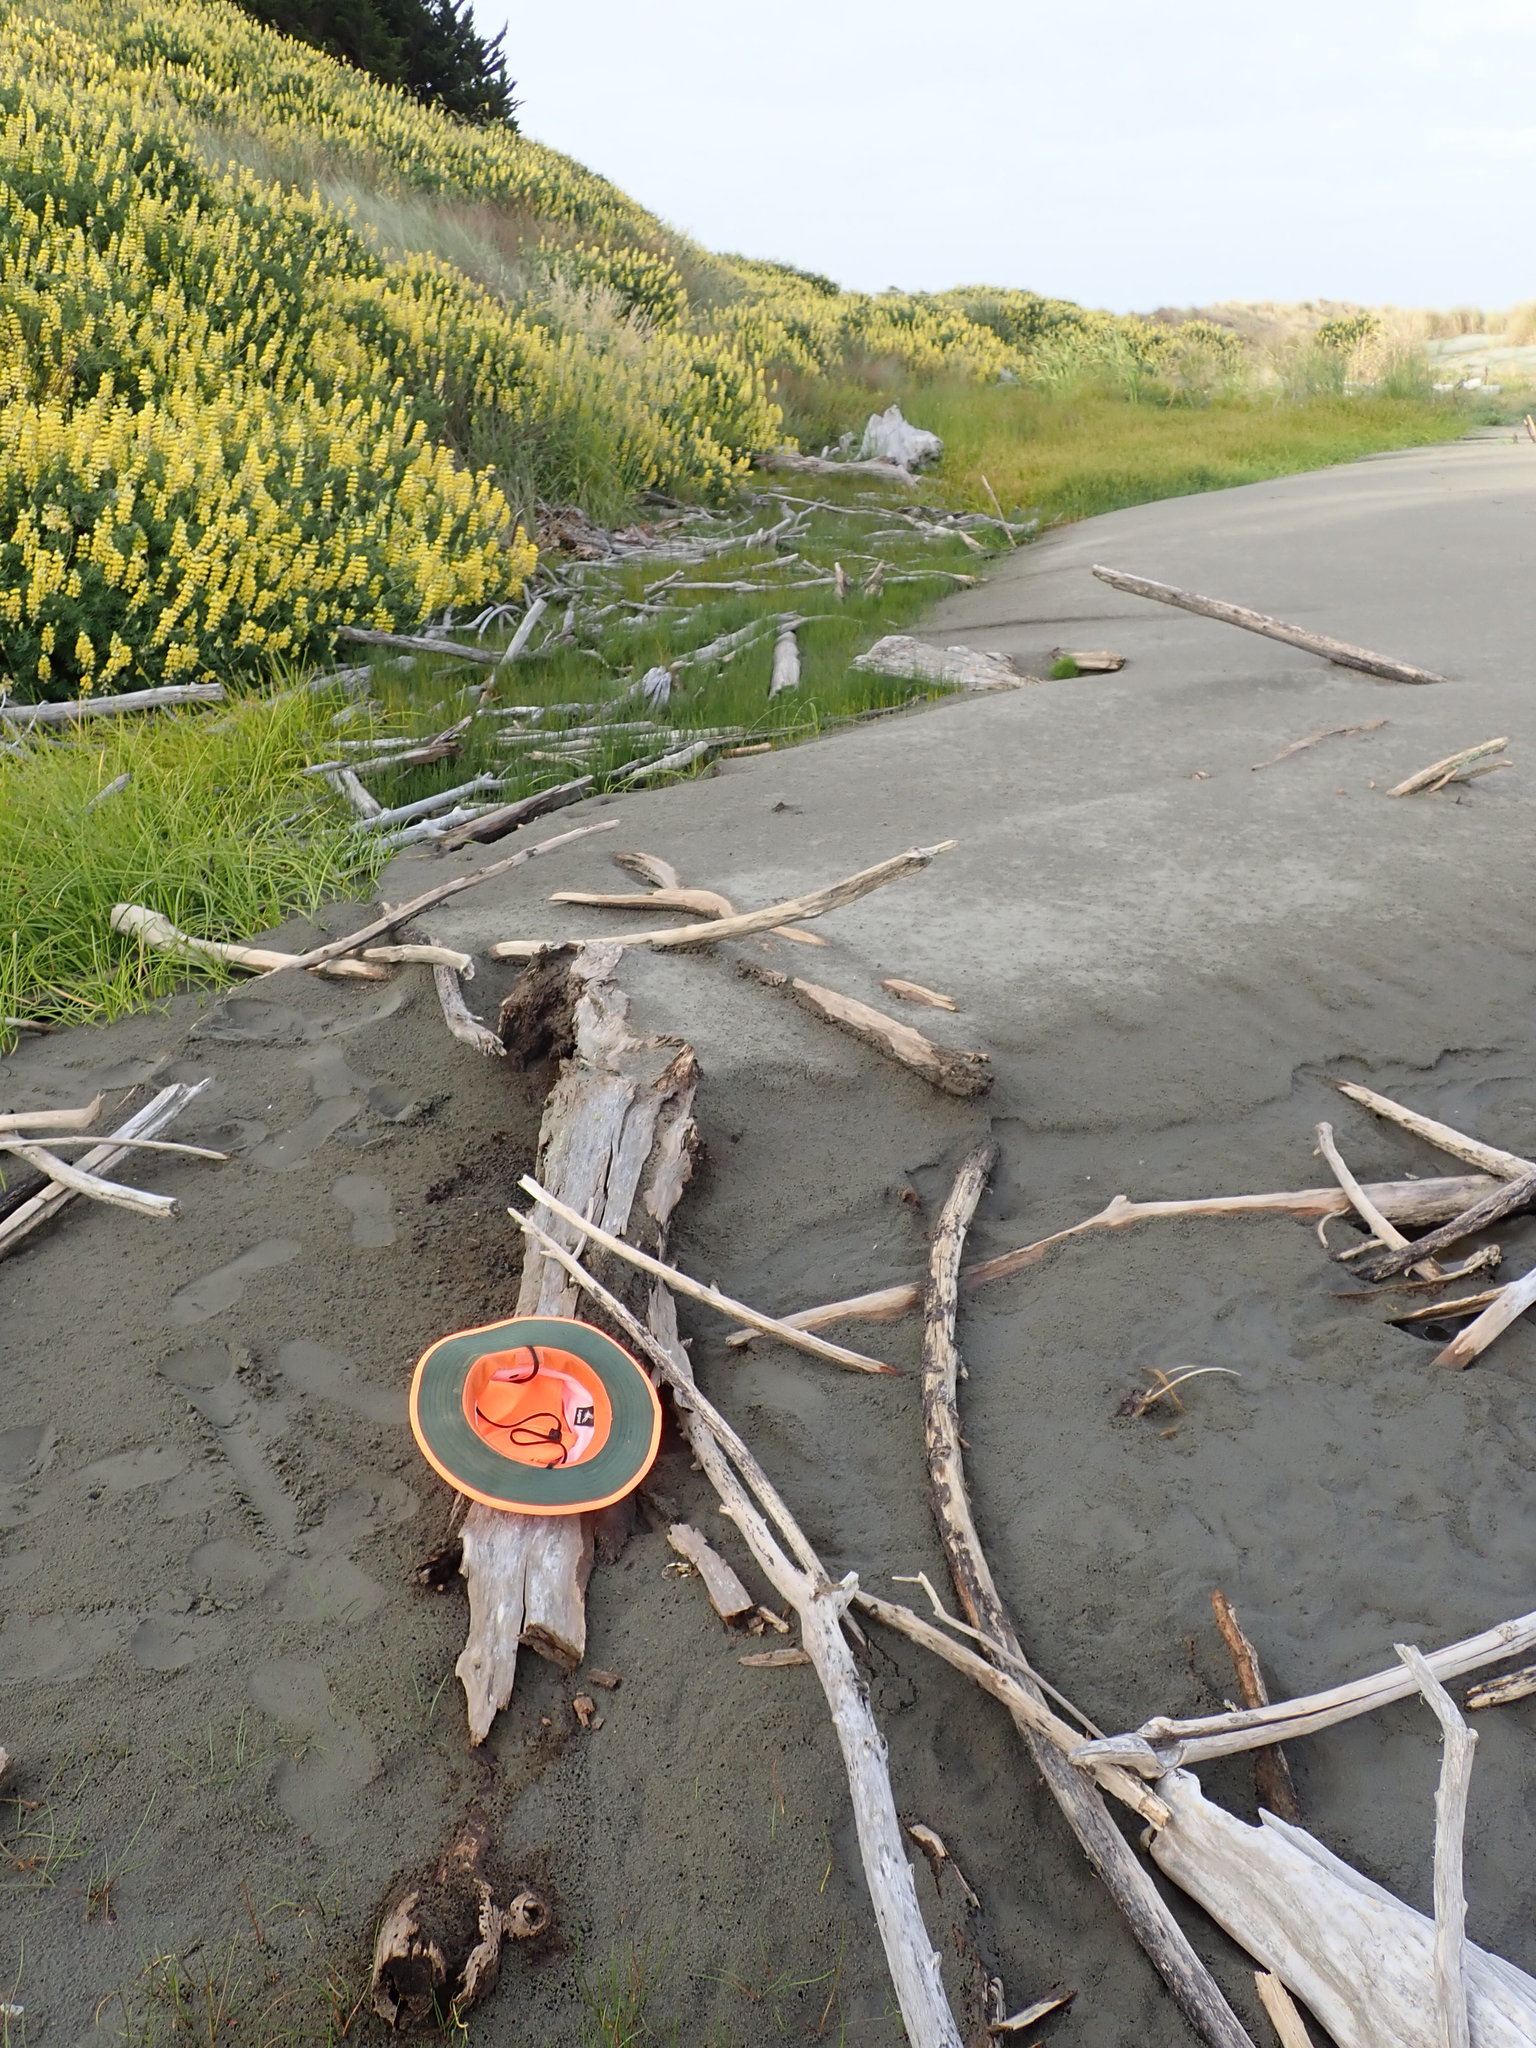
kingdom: Animalia
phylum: Arthropoda
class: Insecta
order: Dermaptera
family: Anisolabididae
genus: Anisolabis
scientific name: Anisolabis littorea
